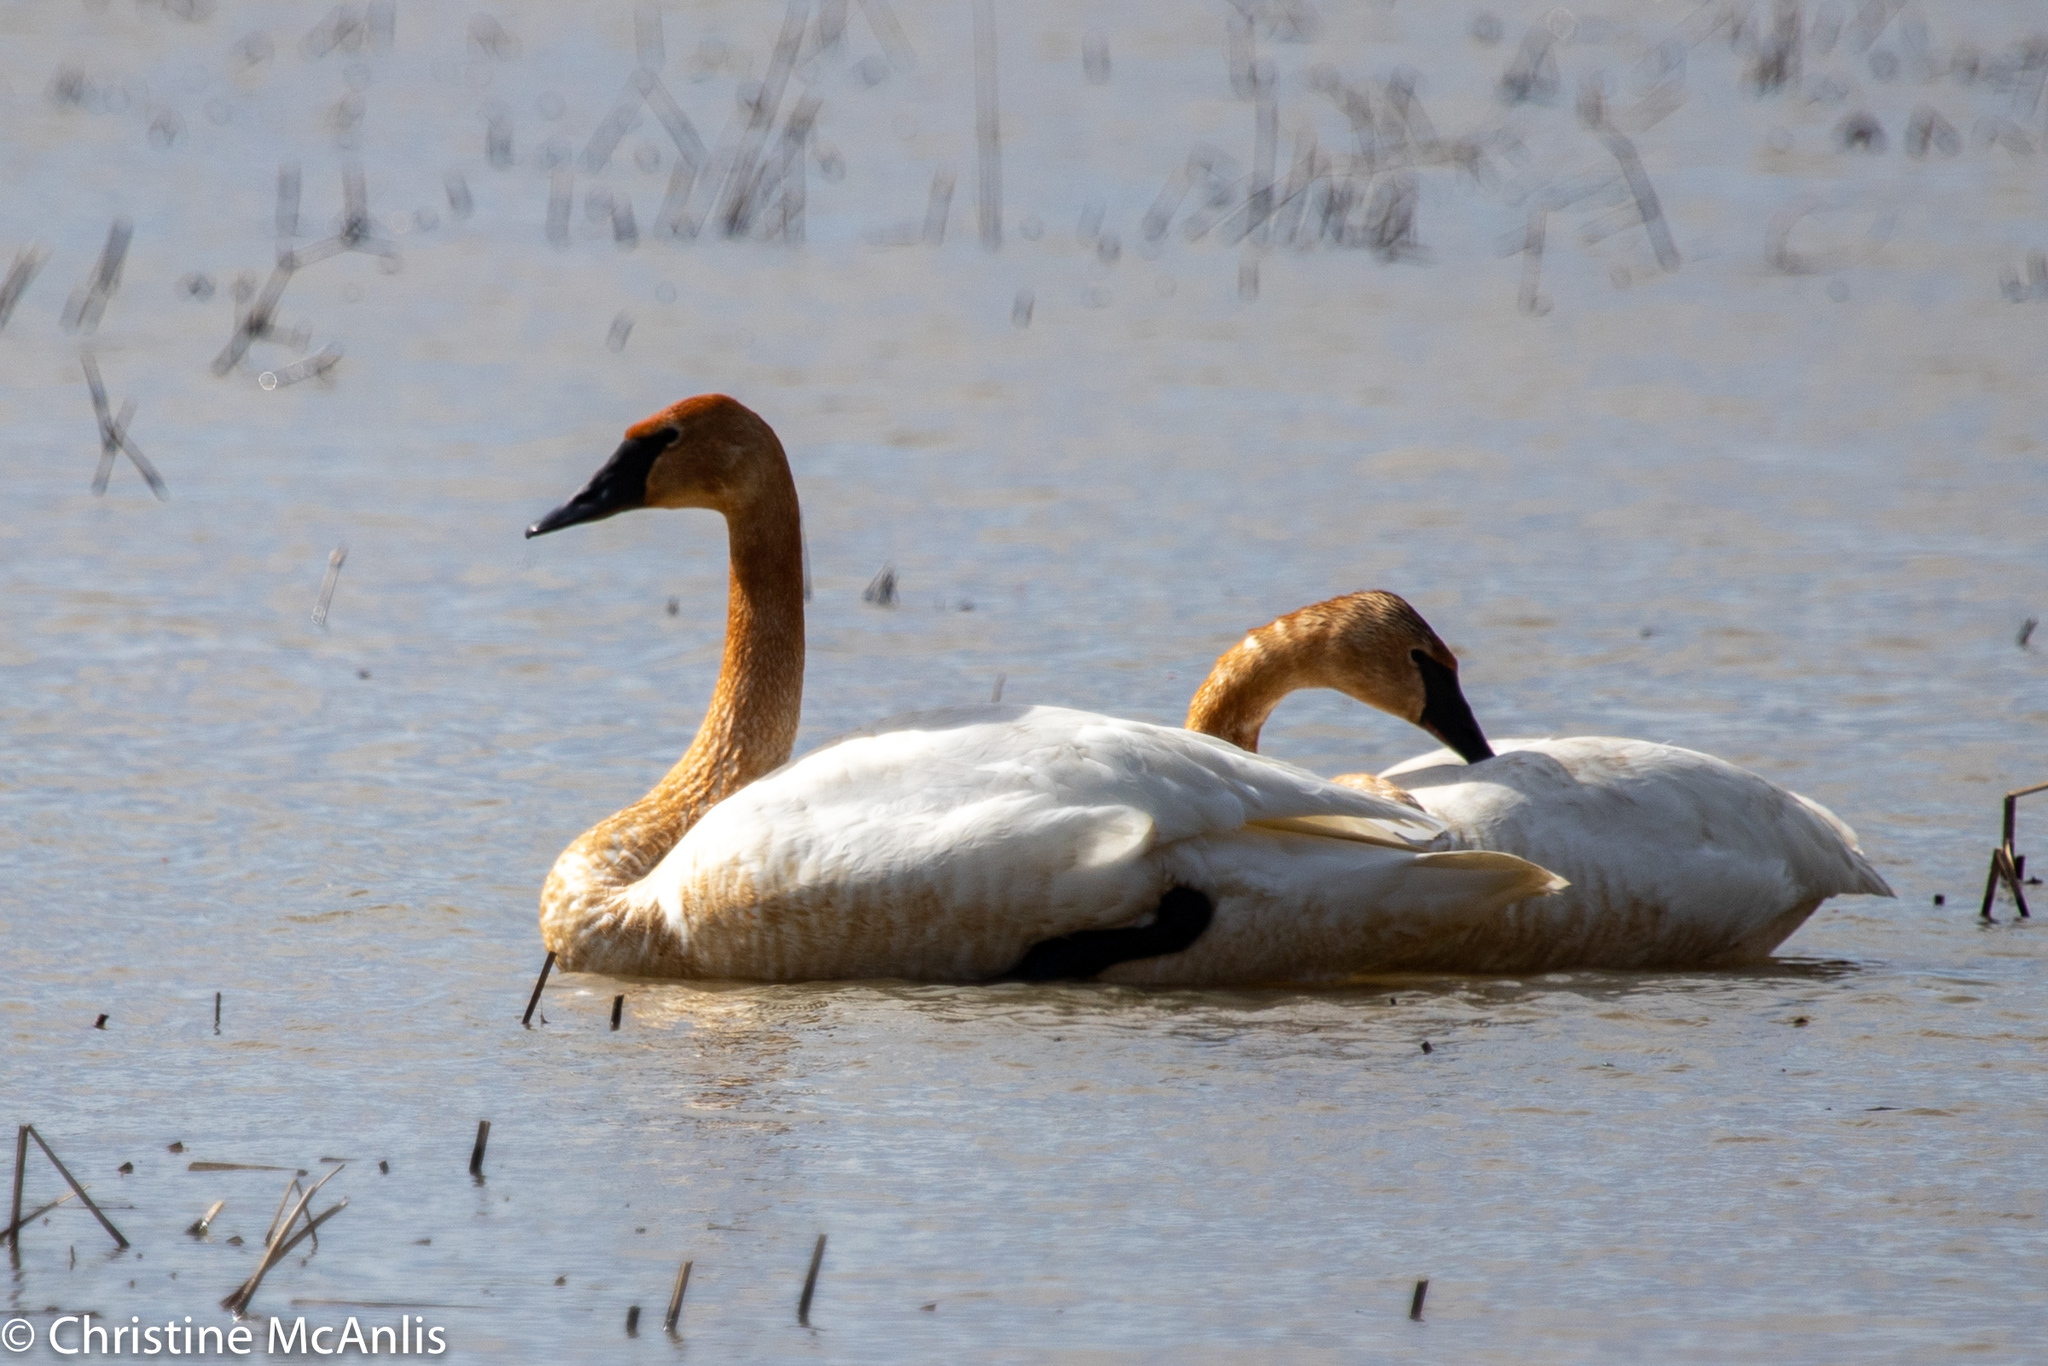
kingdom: Animalia
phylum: Chordata
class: Aves
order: Anseriformes
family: Anatidae
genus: Cygnus
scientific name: Cygnus buccinator
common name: Trumpeter swan
